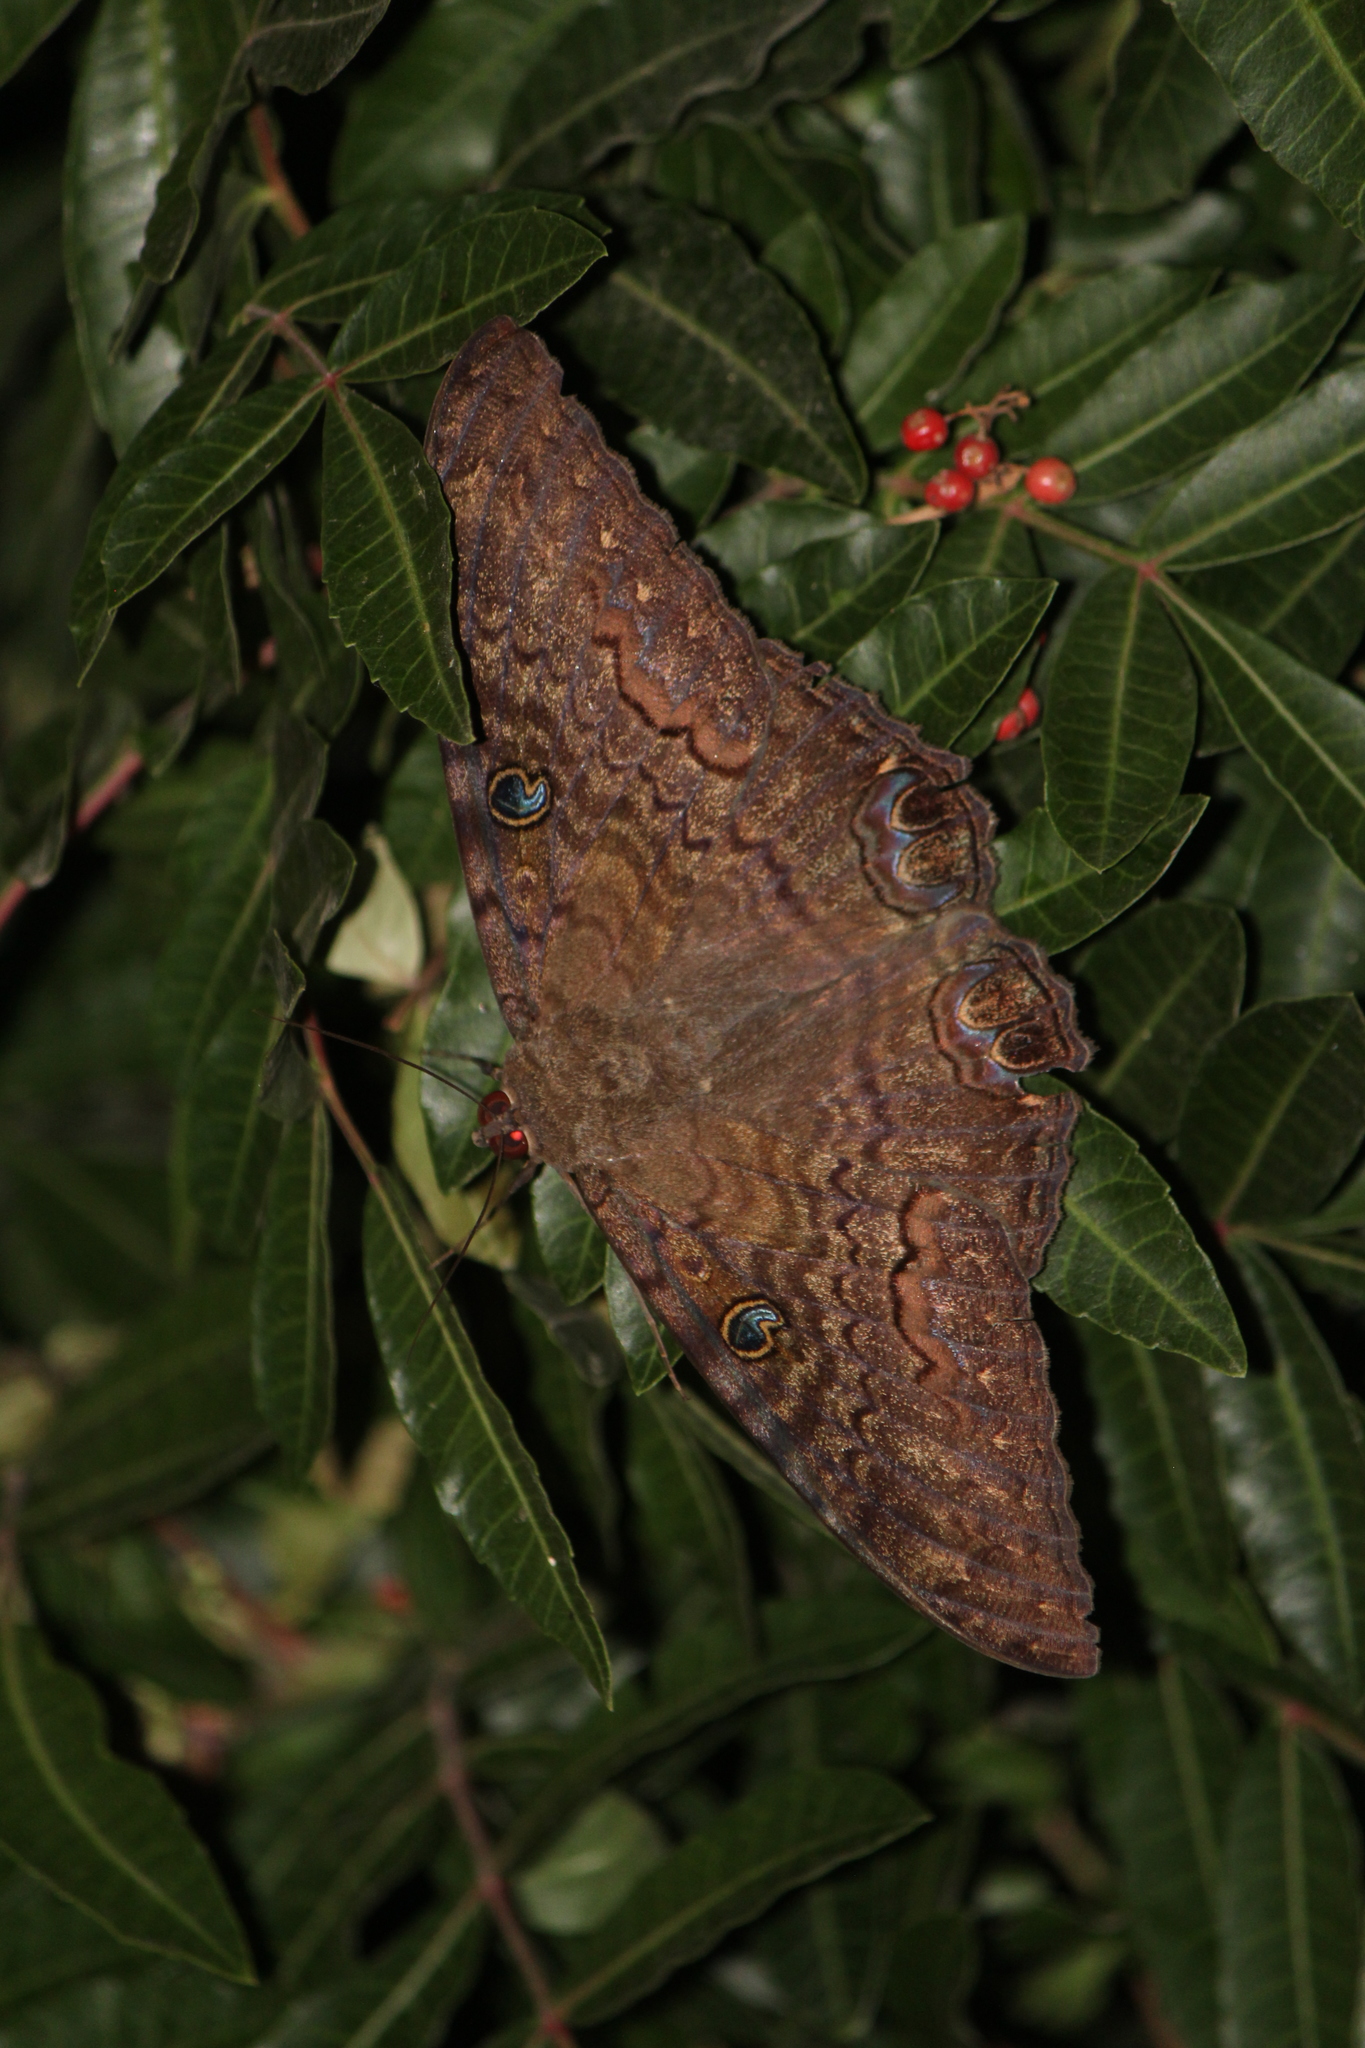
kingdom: Animalia
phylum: Arthropoda
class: Insecta
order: Lepidoptera
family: Erebidae
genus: Ascalapha
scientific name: Ascalapha odorata
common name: Black witch
